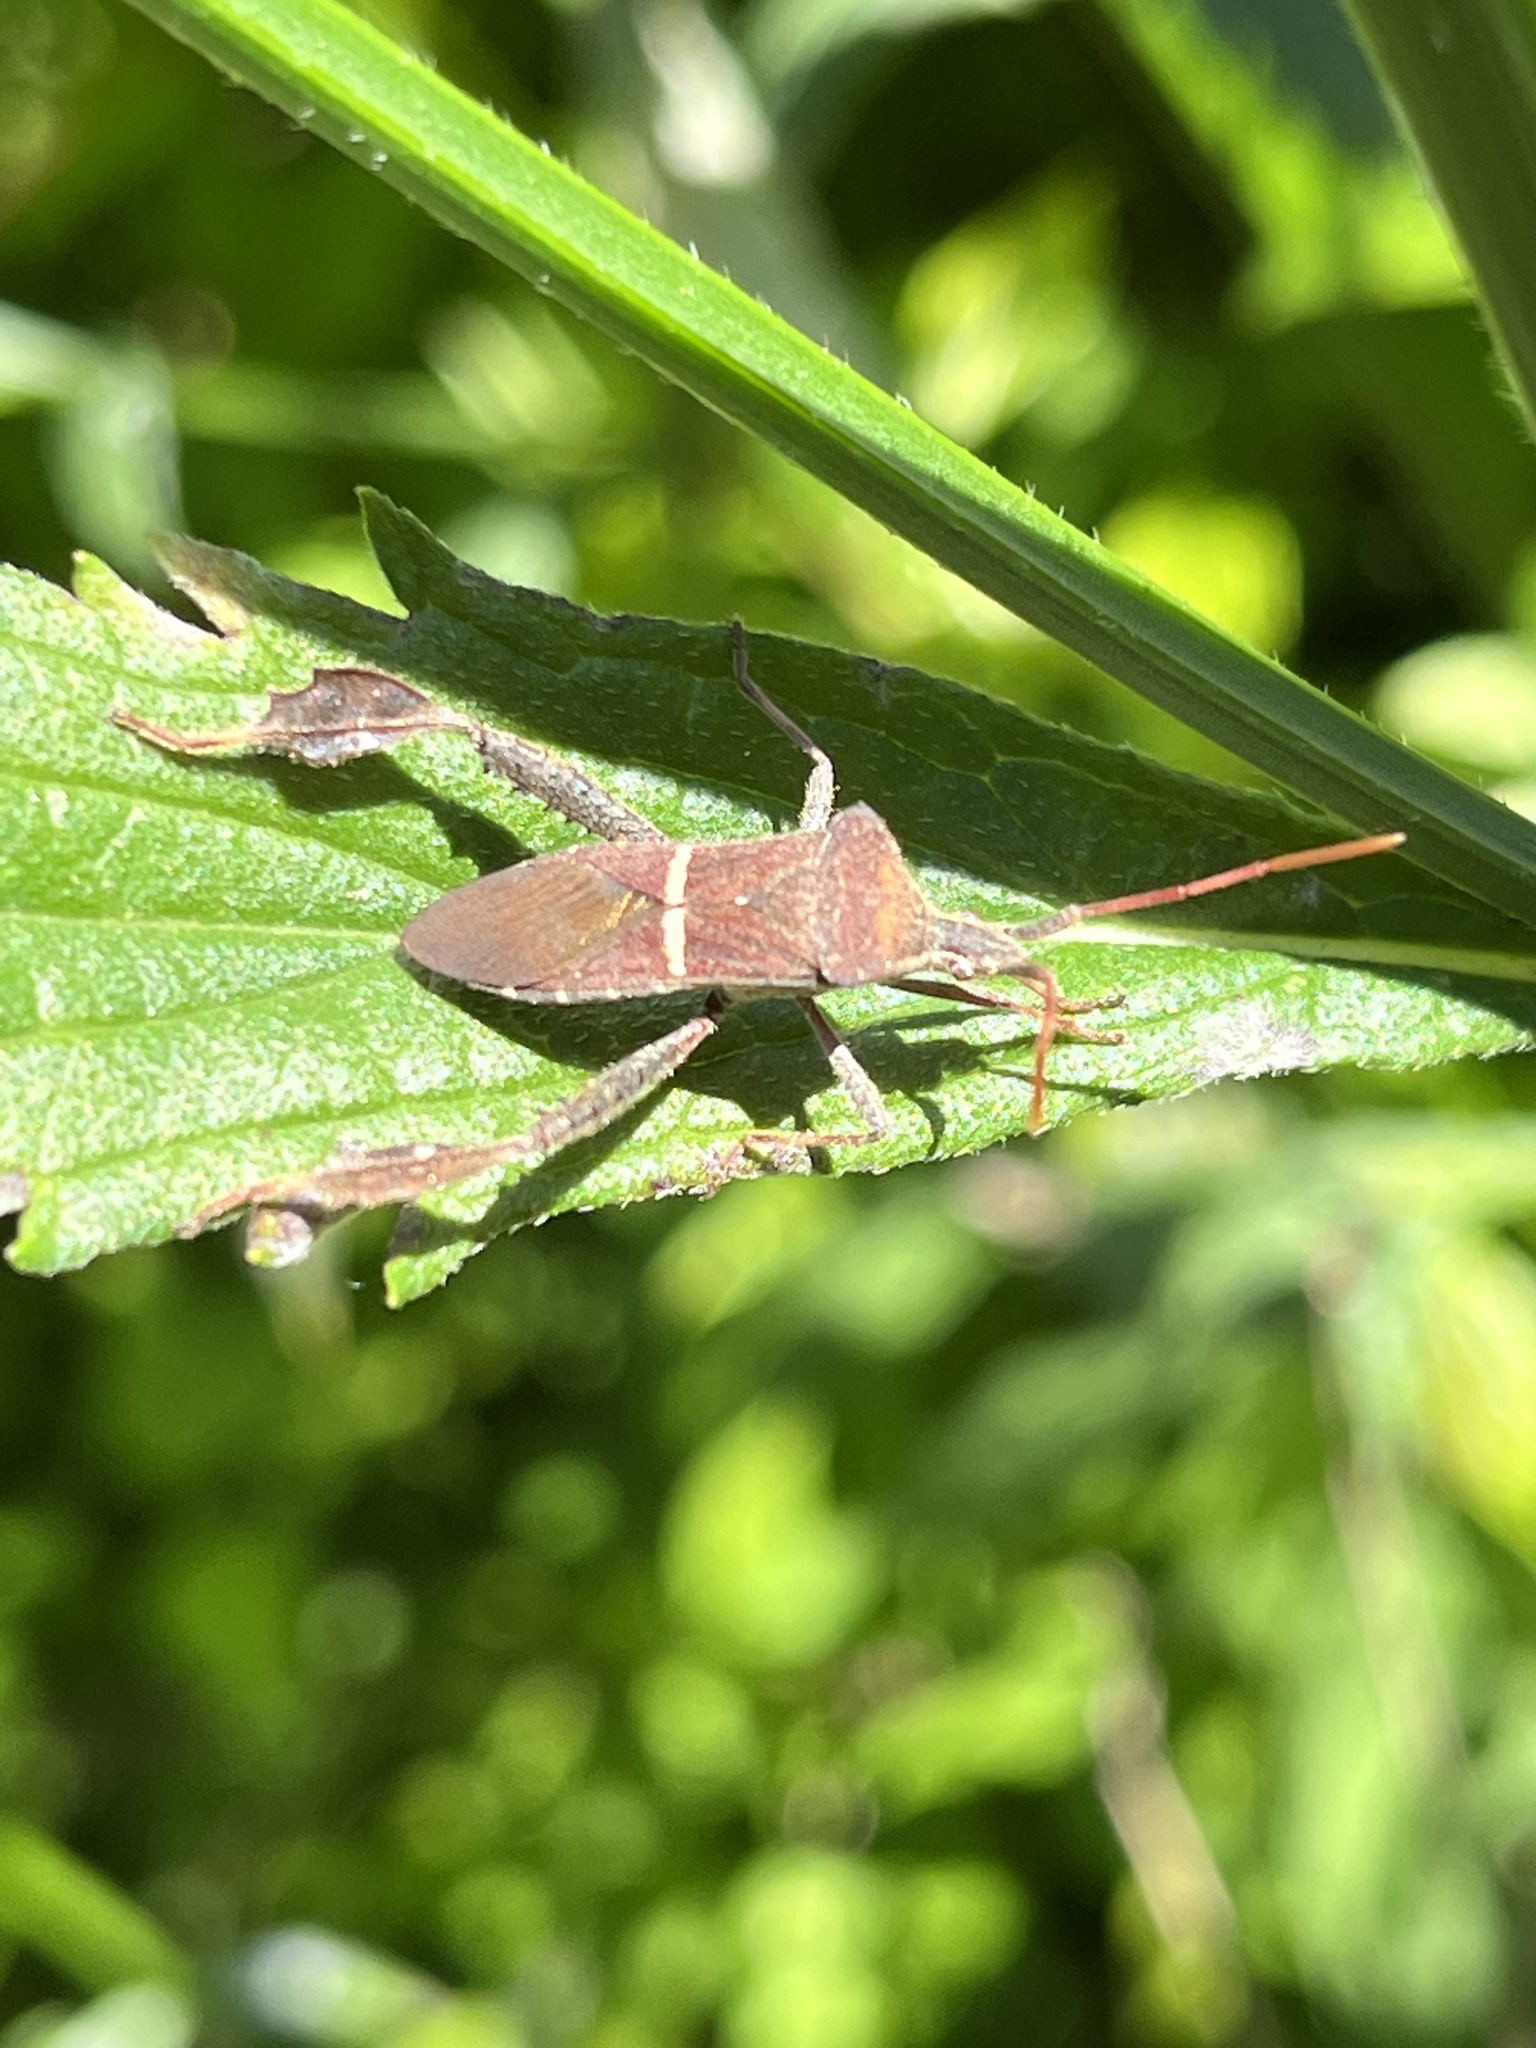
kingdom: Animalia
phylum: Arthropoda
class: Insecta
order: Hemiptera
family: Coreidae
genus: Leptoglossus
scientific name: Leptoglossus phyllopus
